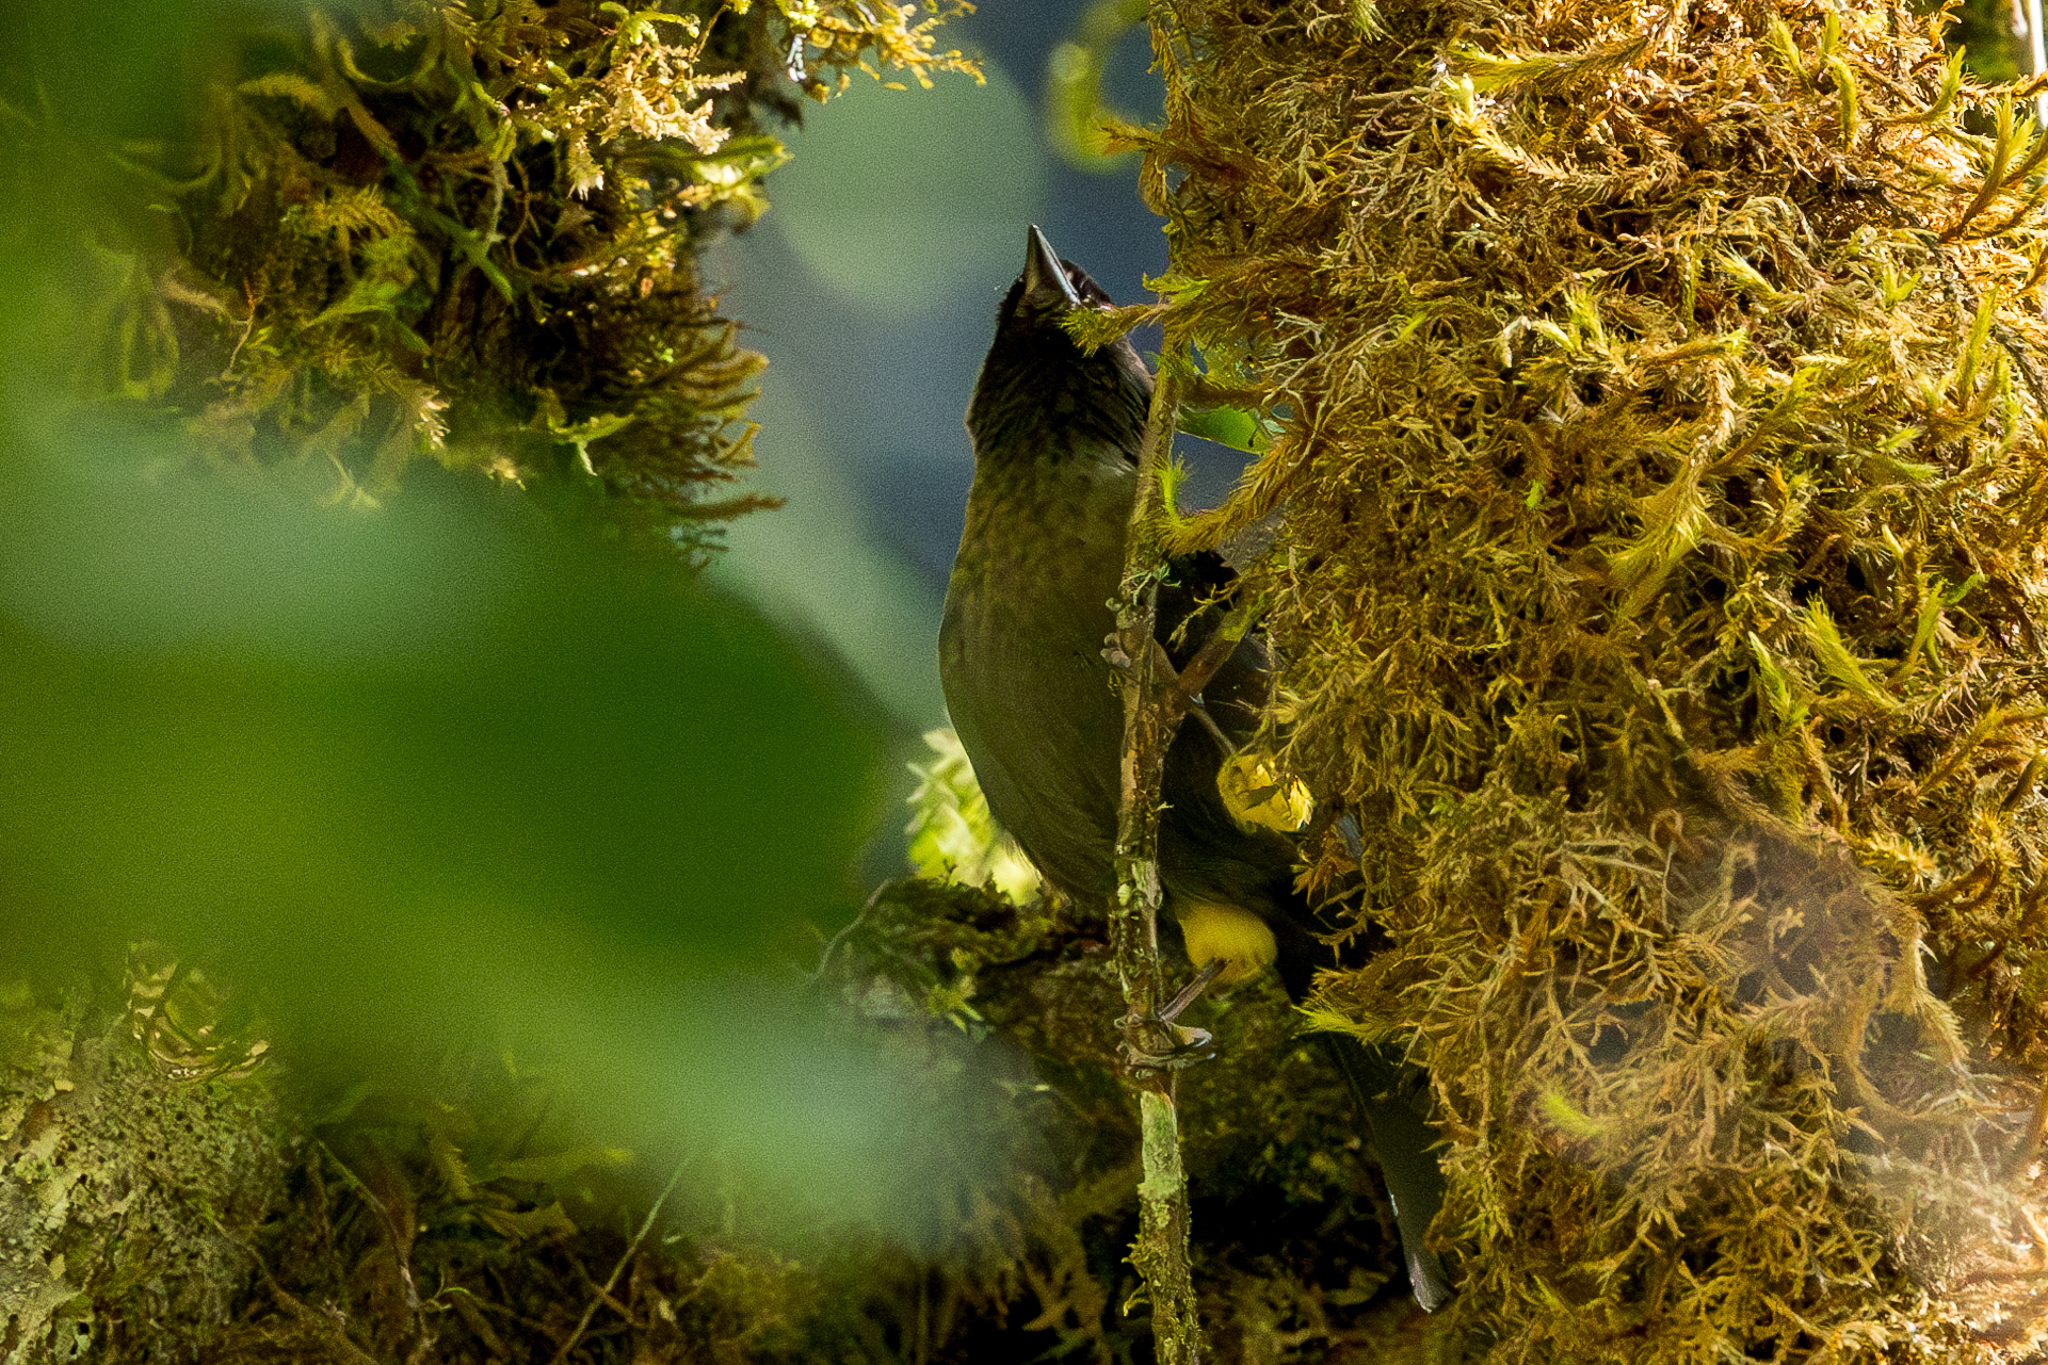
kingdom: Animalia
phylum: Chordata
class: Aves
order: Passeriformes
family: Passerellidae
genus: Atlapetes
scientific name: Atlapetes tibialis
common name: Yellow-thighed brushfinch
